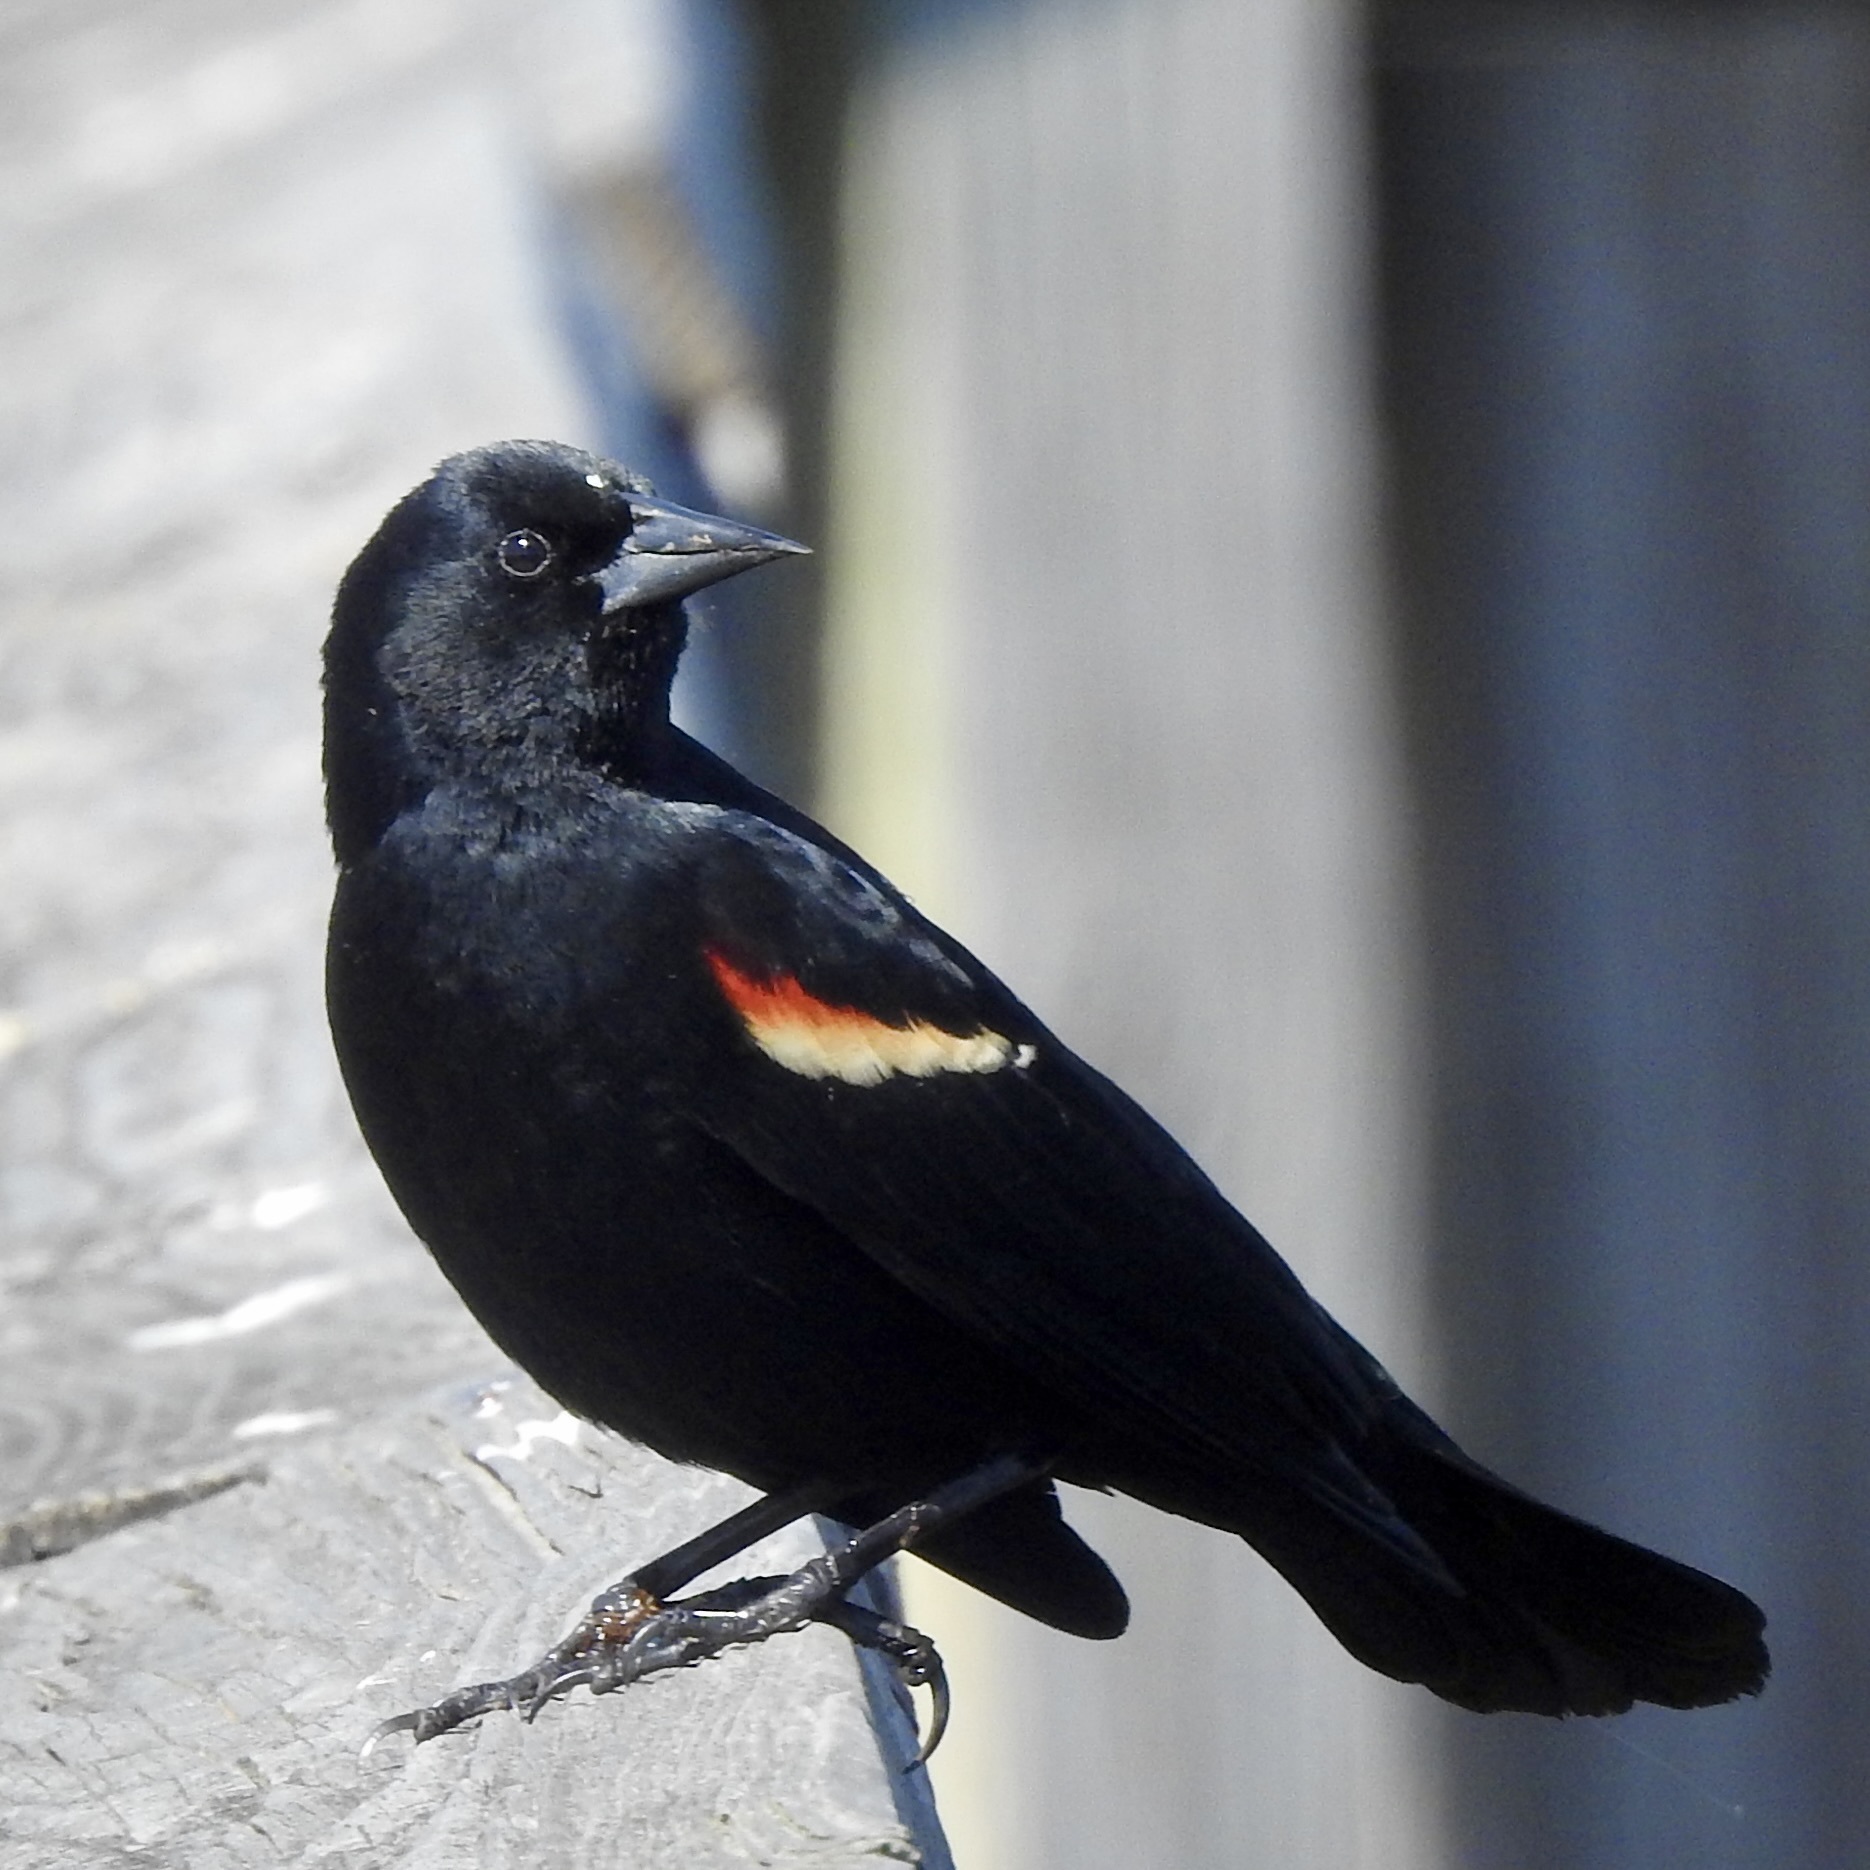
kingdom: Animalia
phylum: Chordata
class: Aves
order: Passeriformes
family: Icteridae
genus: Agelaius
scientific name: Agelaius phoeniceus
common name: Red-winged blackbird
